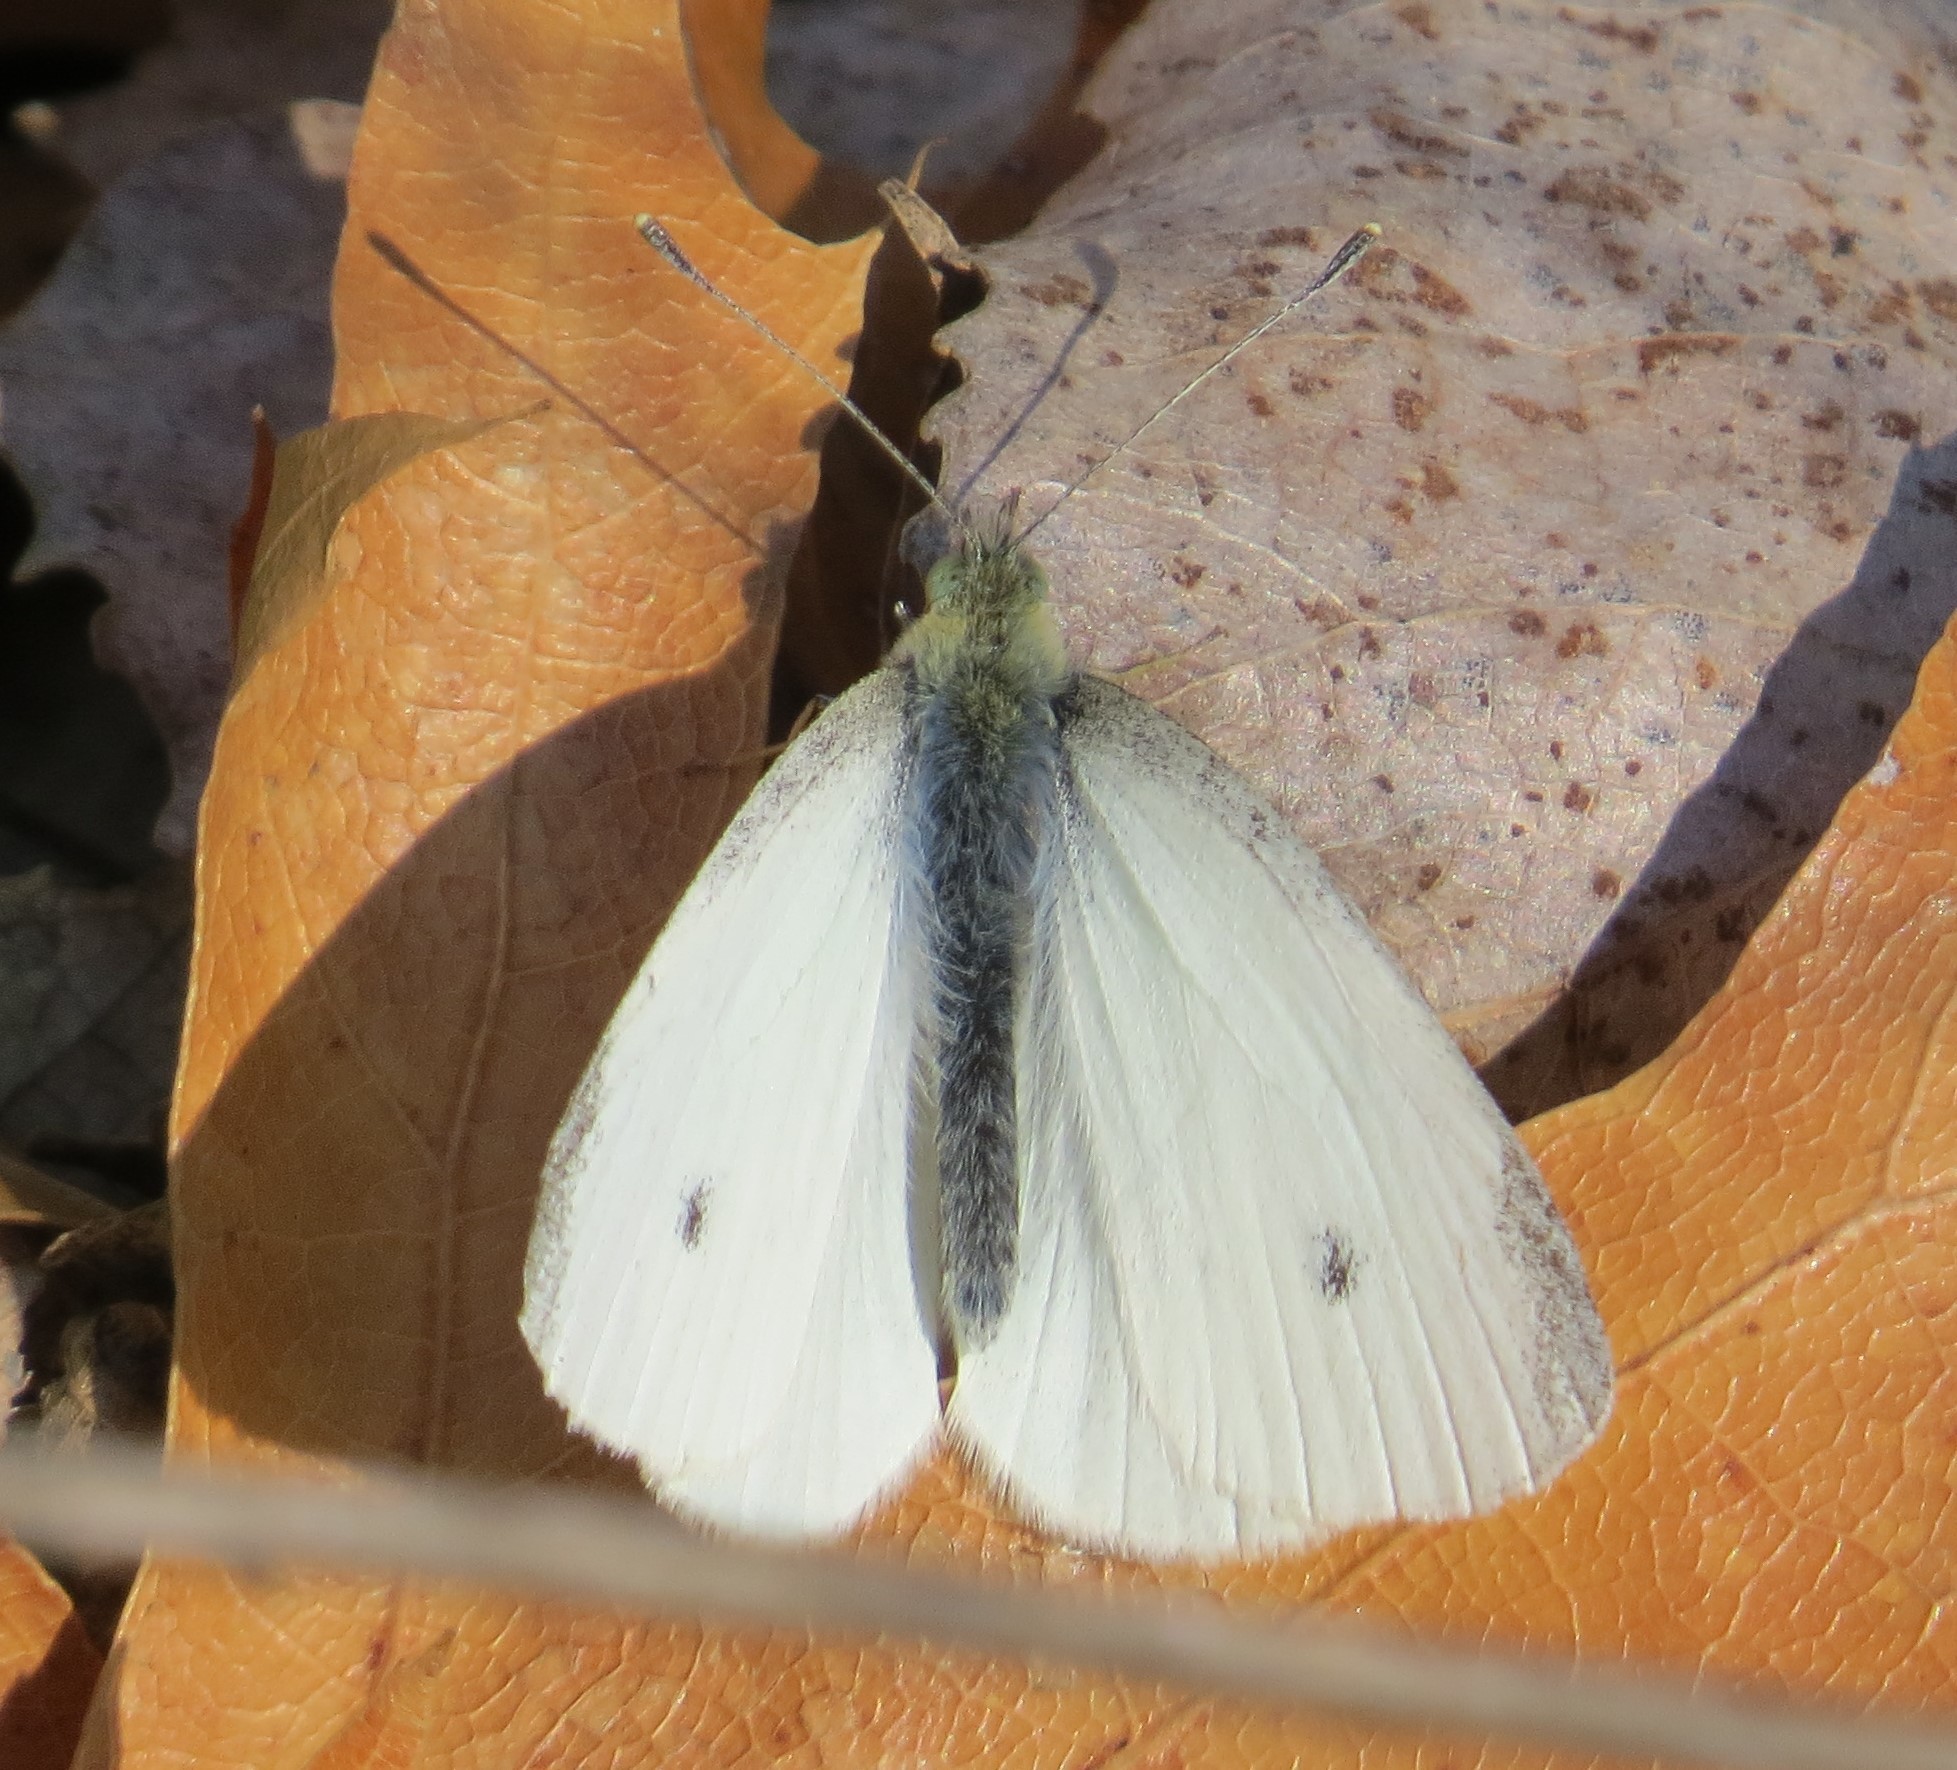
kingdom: Animalia
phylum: Arthropoda
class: Insecta
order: Lepidoptera
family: Pieridae
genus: Pieris
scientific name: Pieris rapae
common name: Small white
